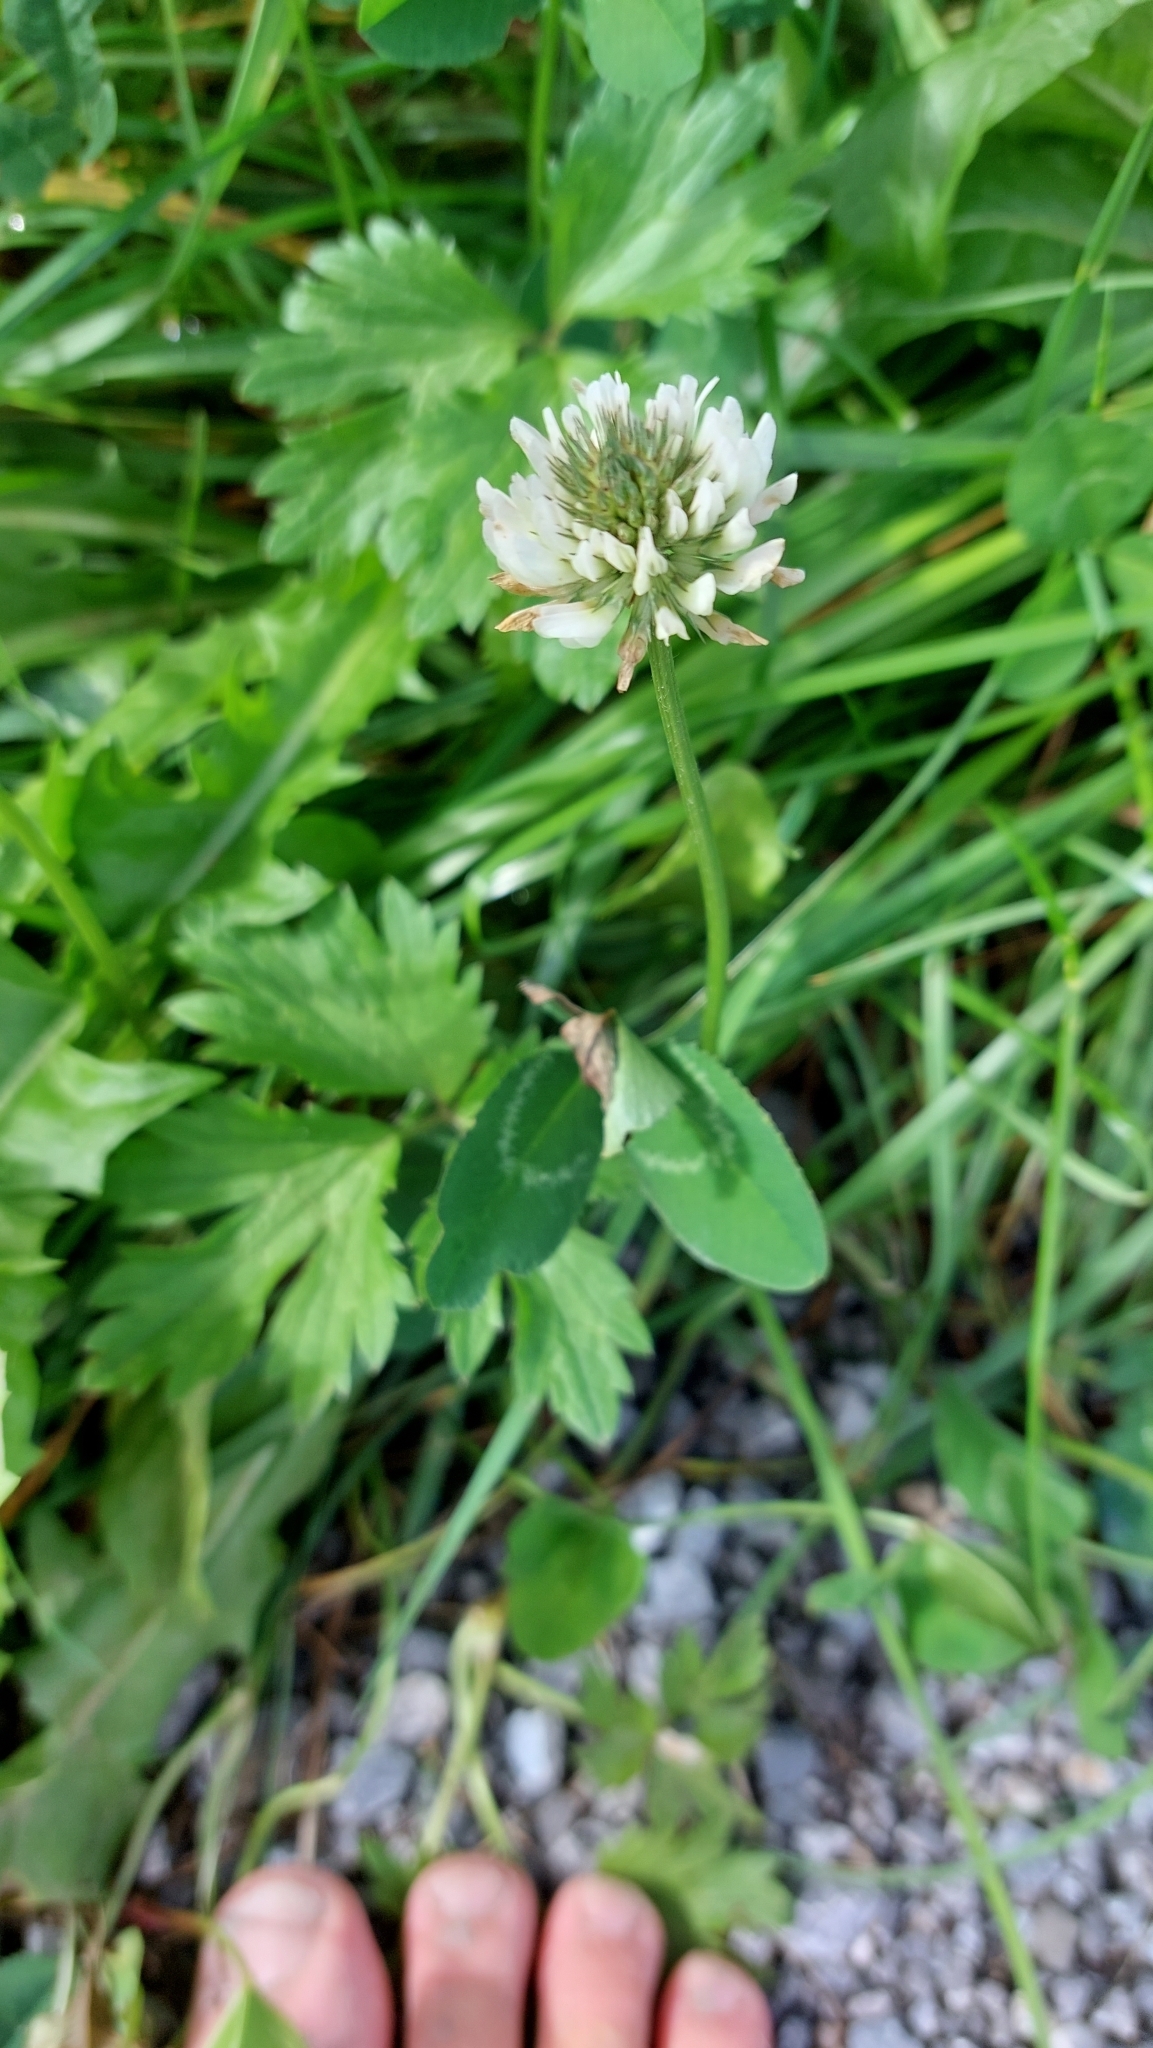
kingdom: Plantae
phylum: Tracheophyta
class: Magnoliopsida
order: Fabales
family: Fabaceae
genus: Trifolium
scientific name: Trifolium repens
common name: White clover
